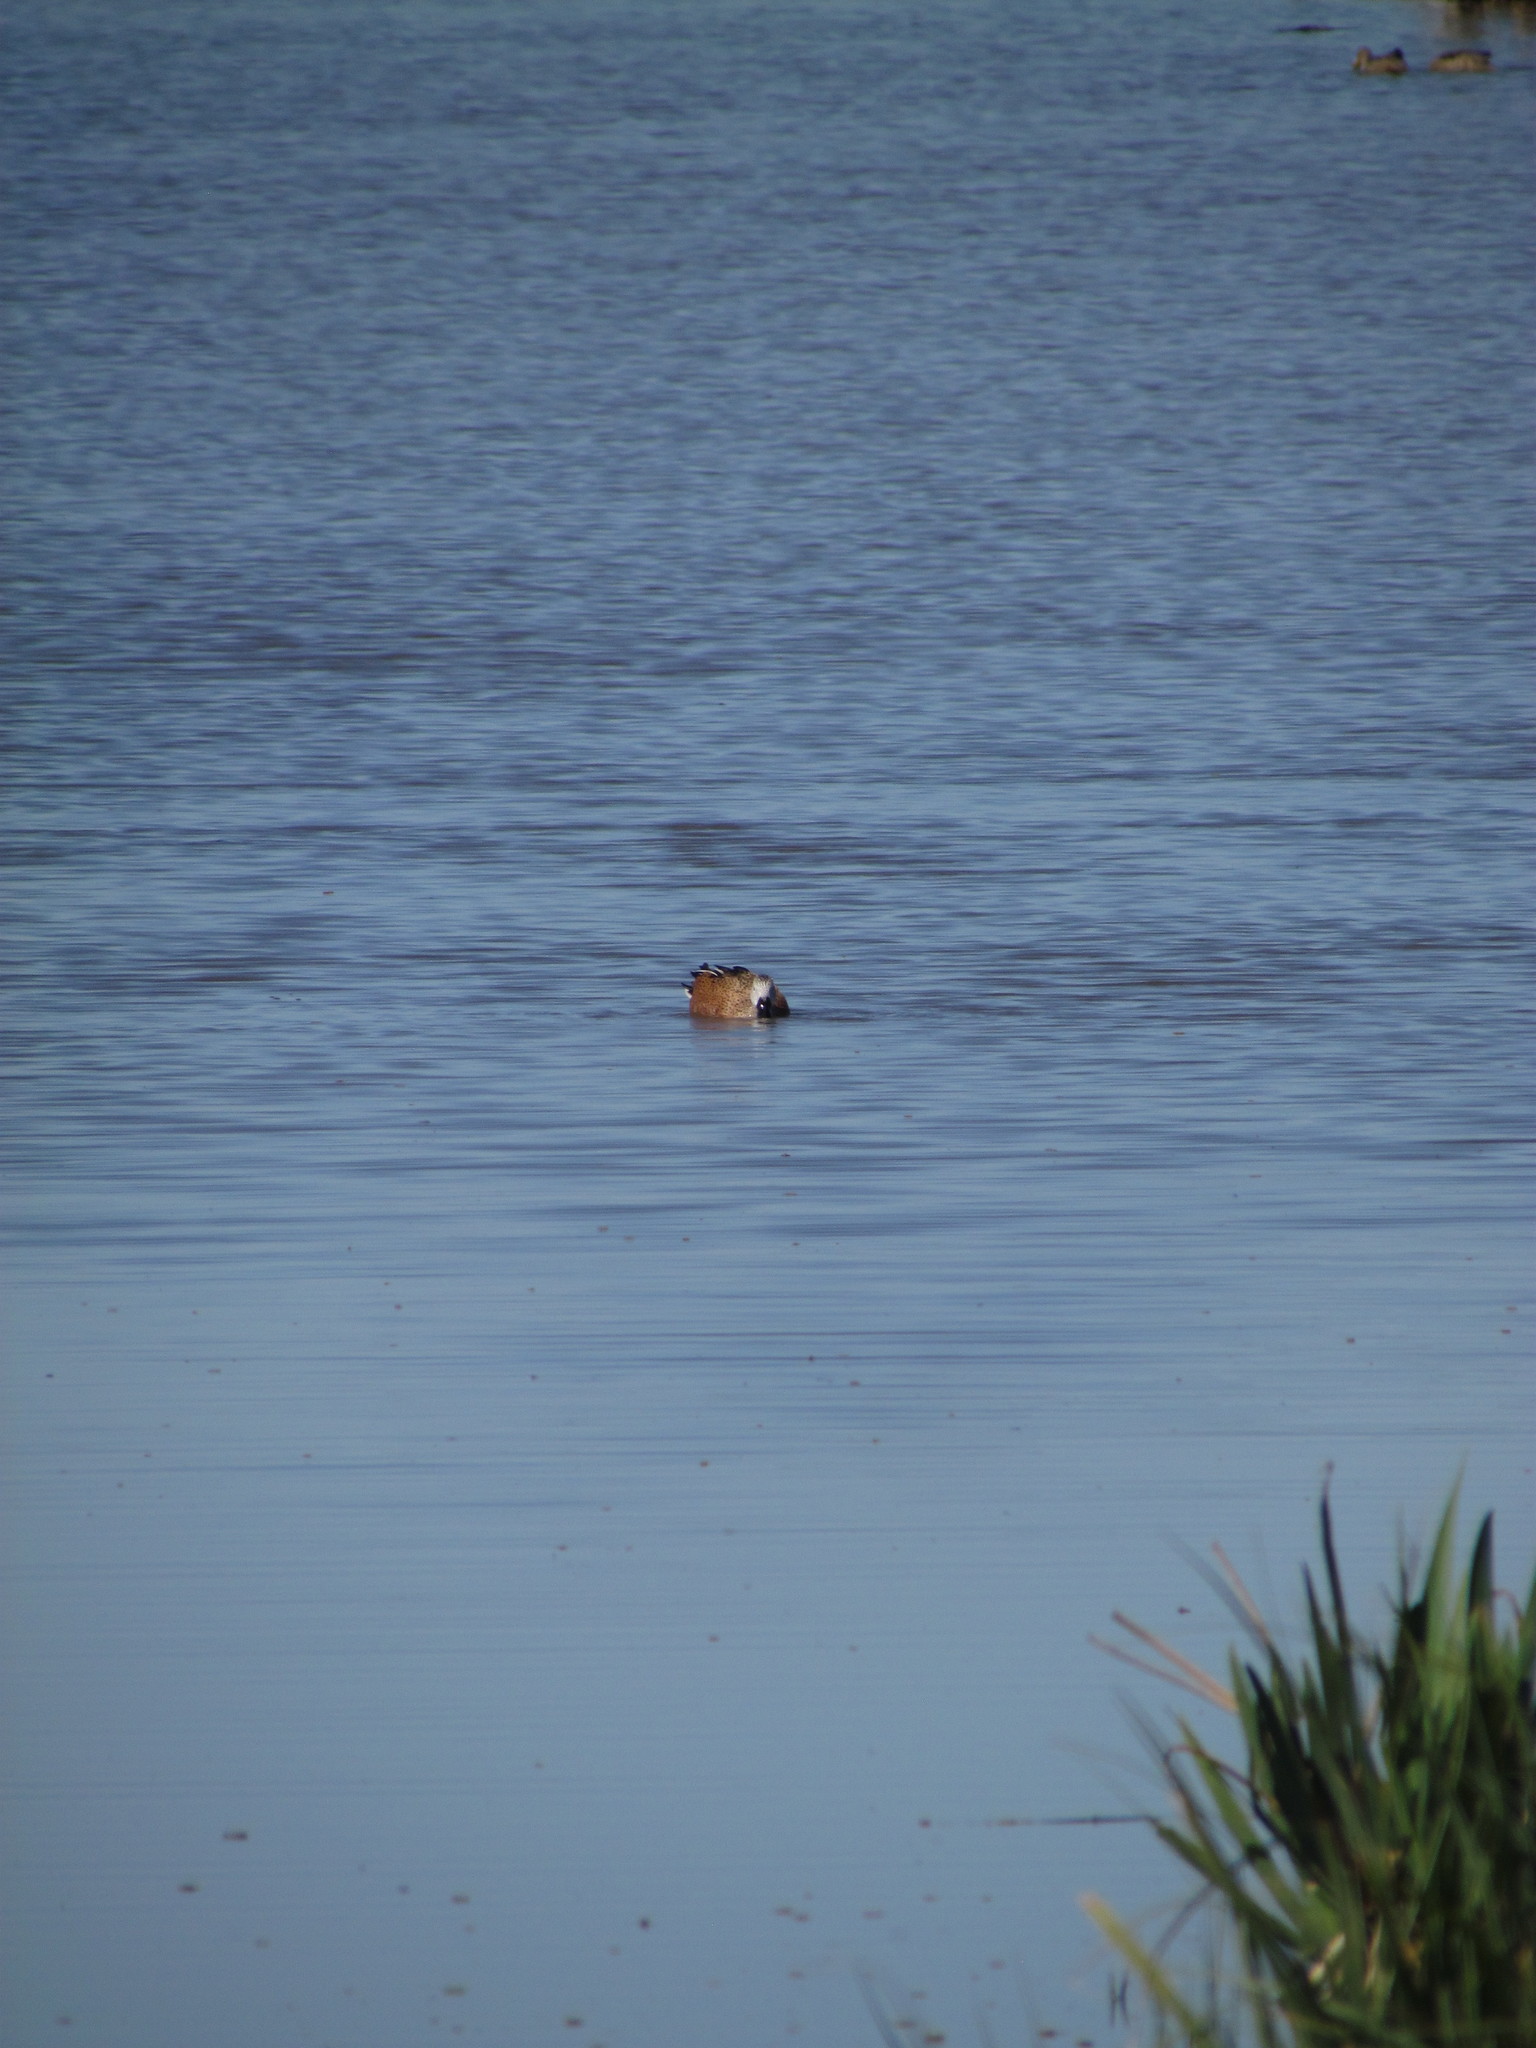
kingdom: Animalia
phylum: Chordata
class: Aves
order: Anseriformes
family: Anatidae
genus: Spatula
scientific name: Spatula platalea
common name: Red shoveler
